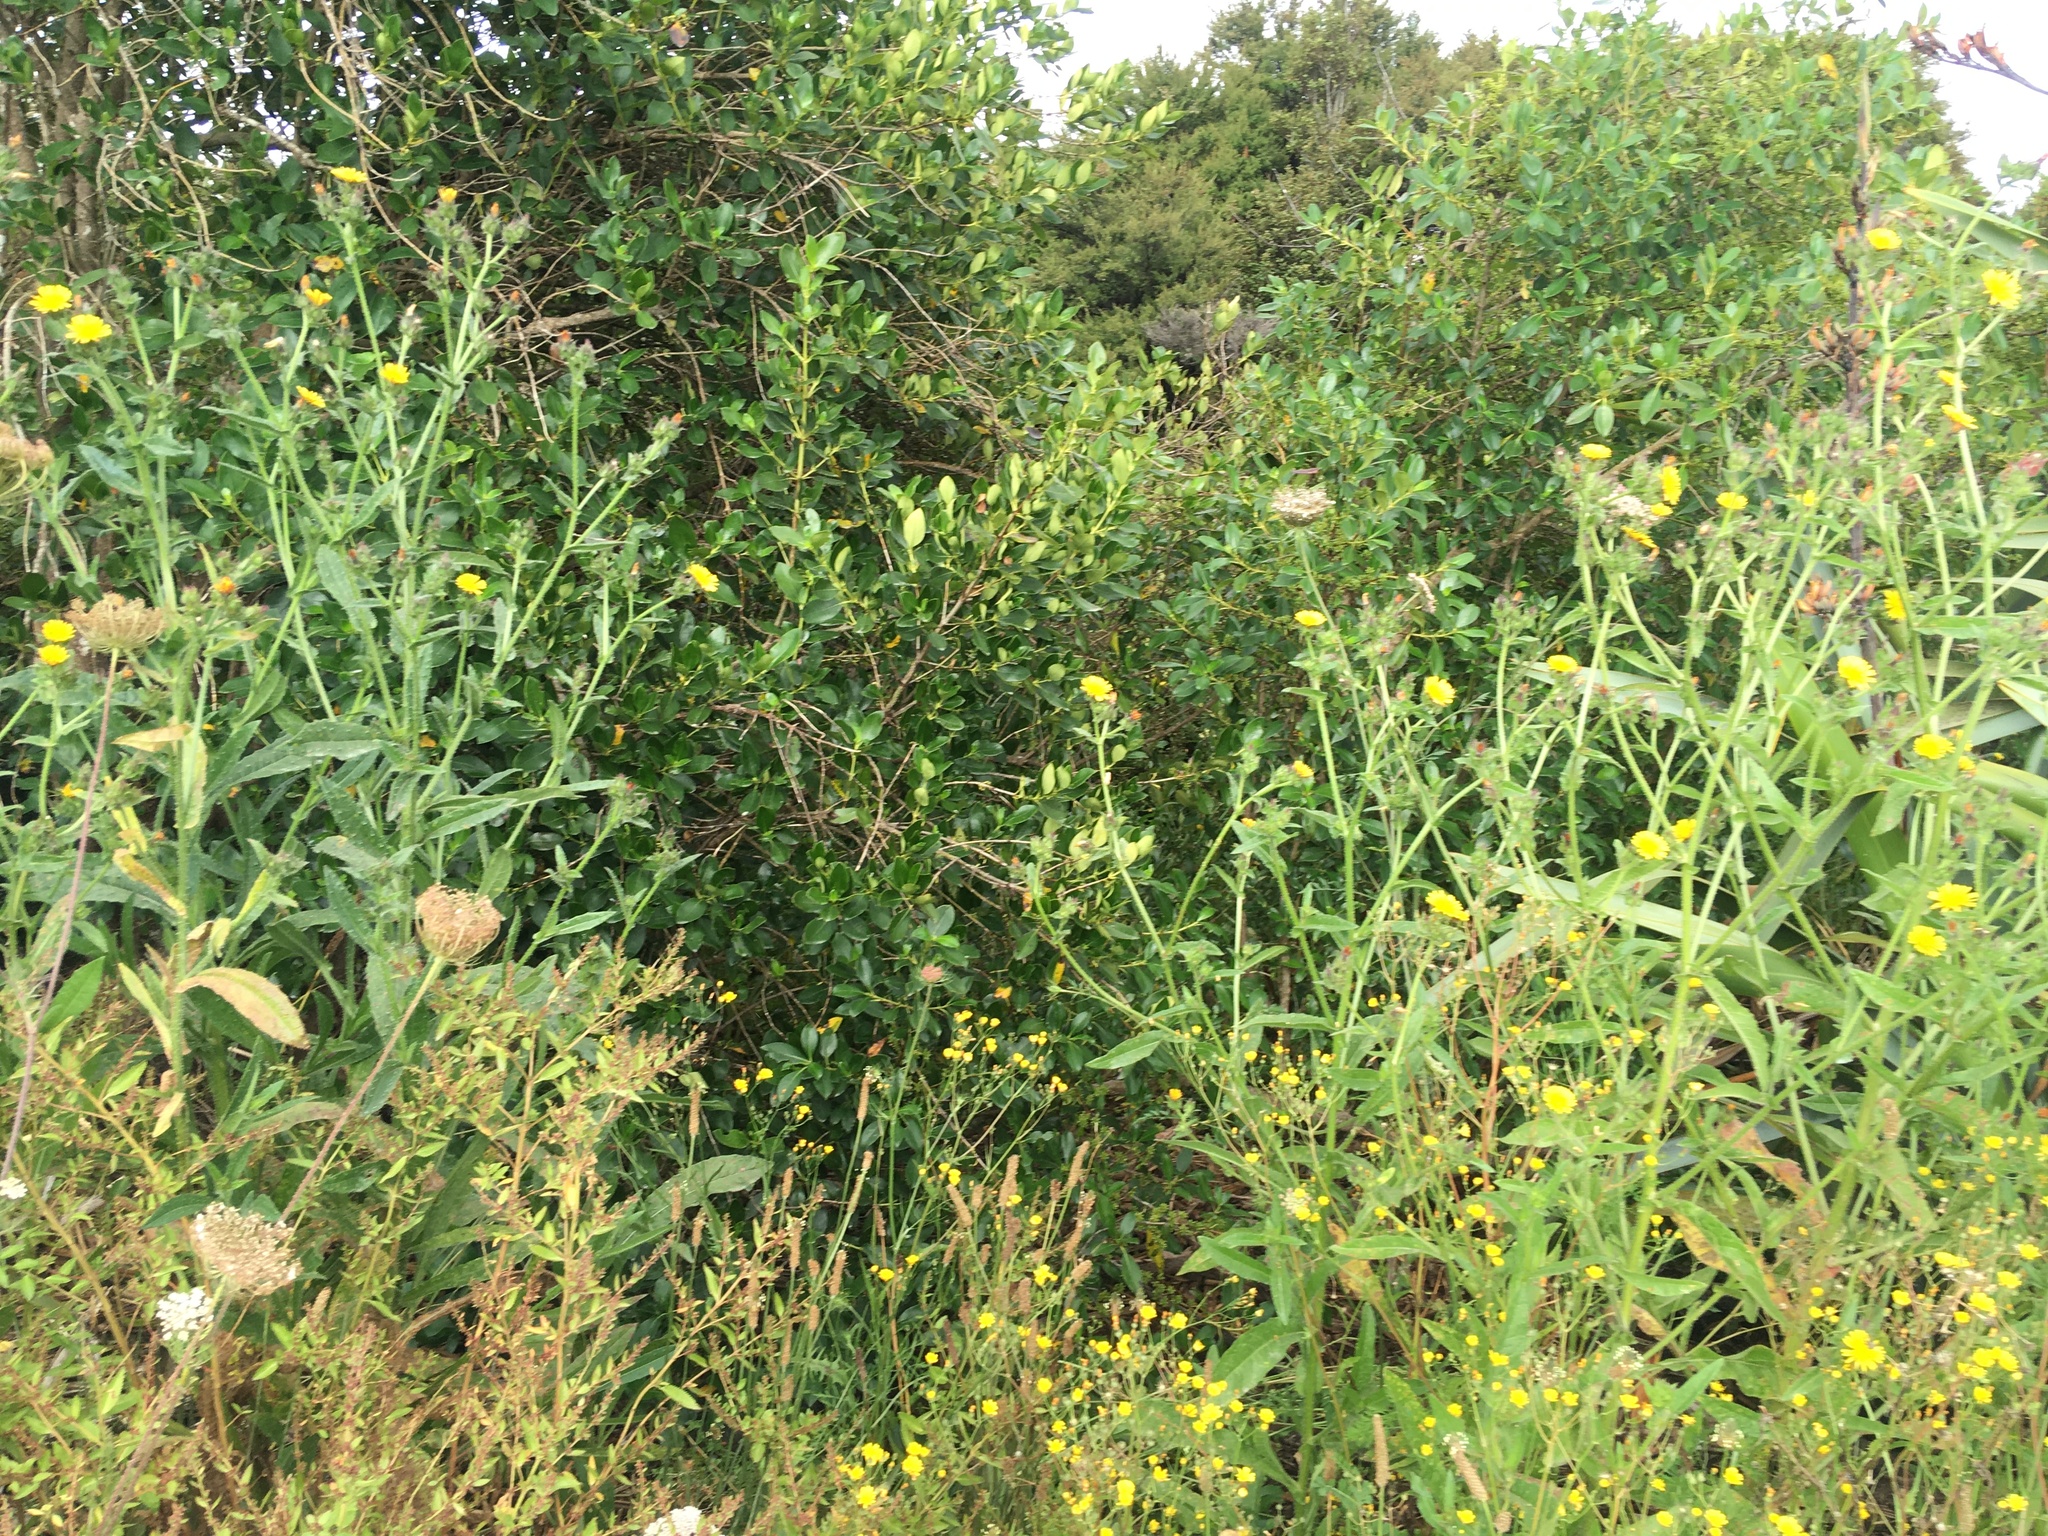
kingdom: Plantae
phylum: Tracheophyta
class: Magnoliopsida
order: Gentianales
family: Rubiaceae
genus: Coprosma
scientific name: Coprosma robusta
